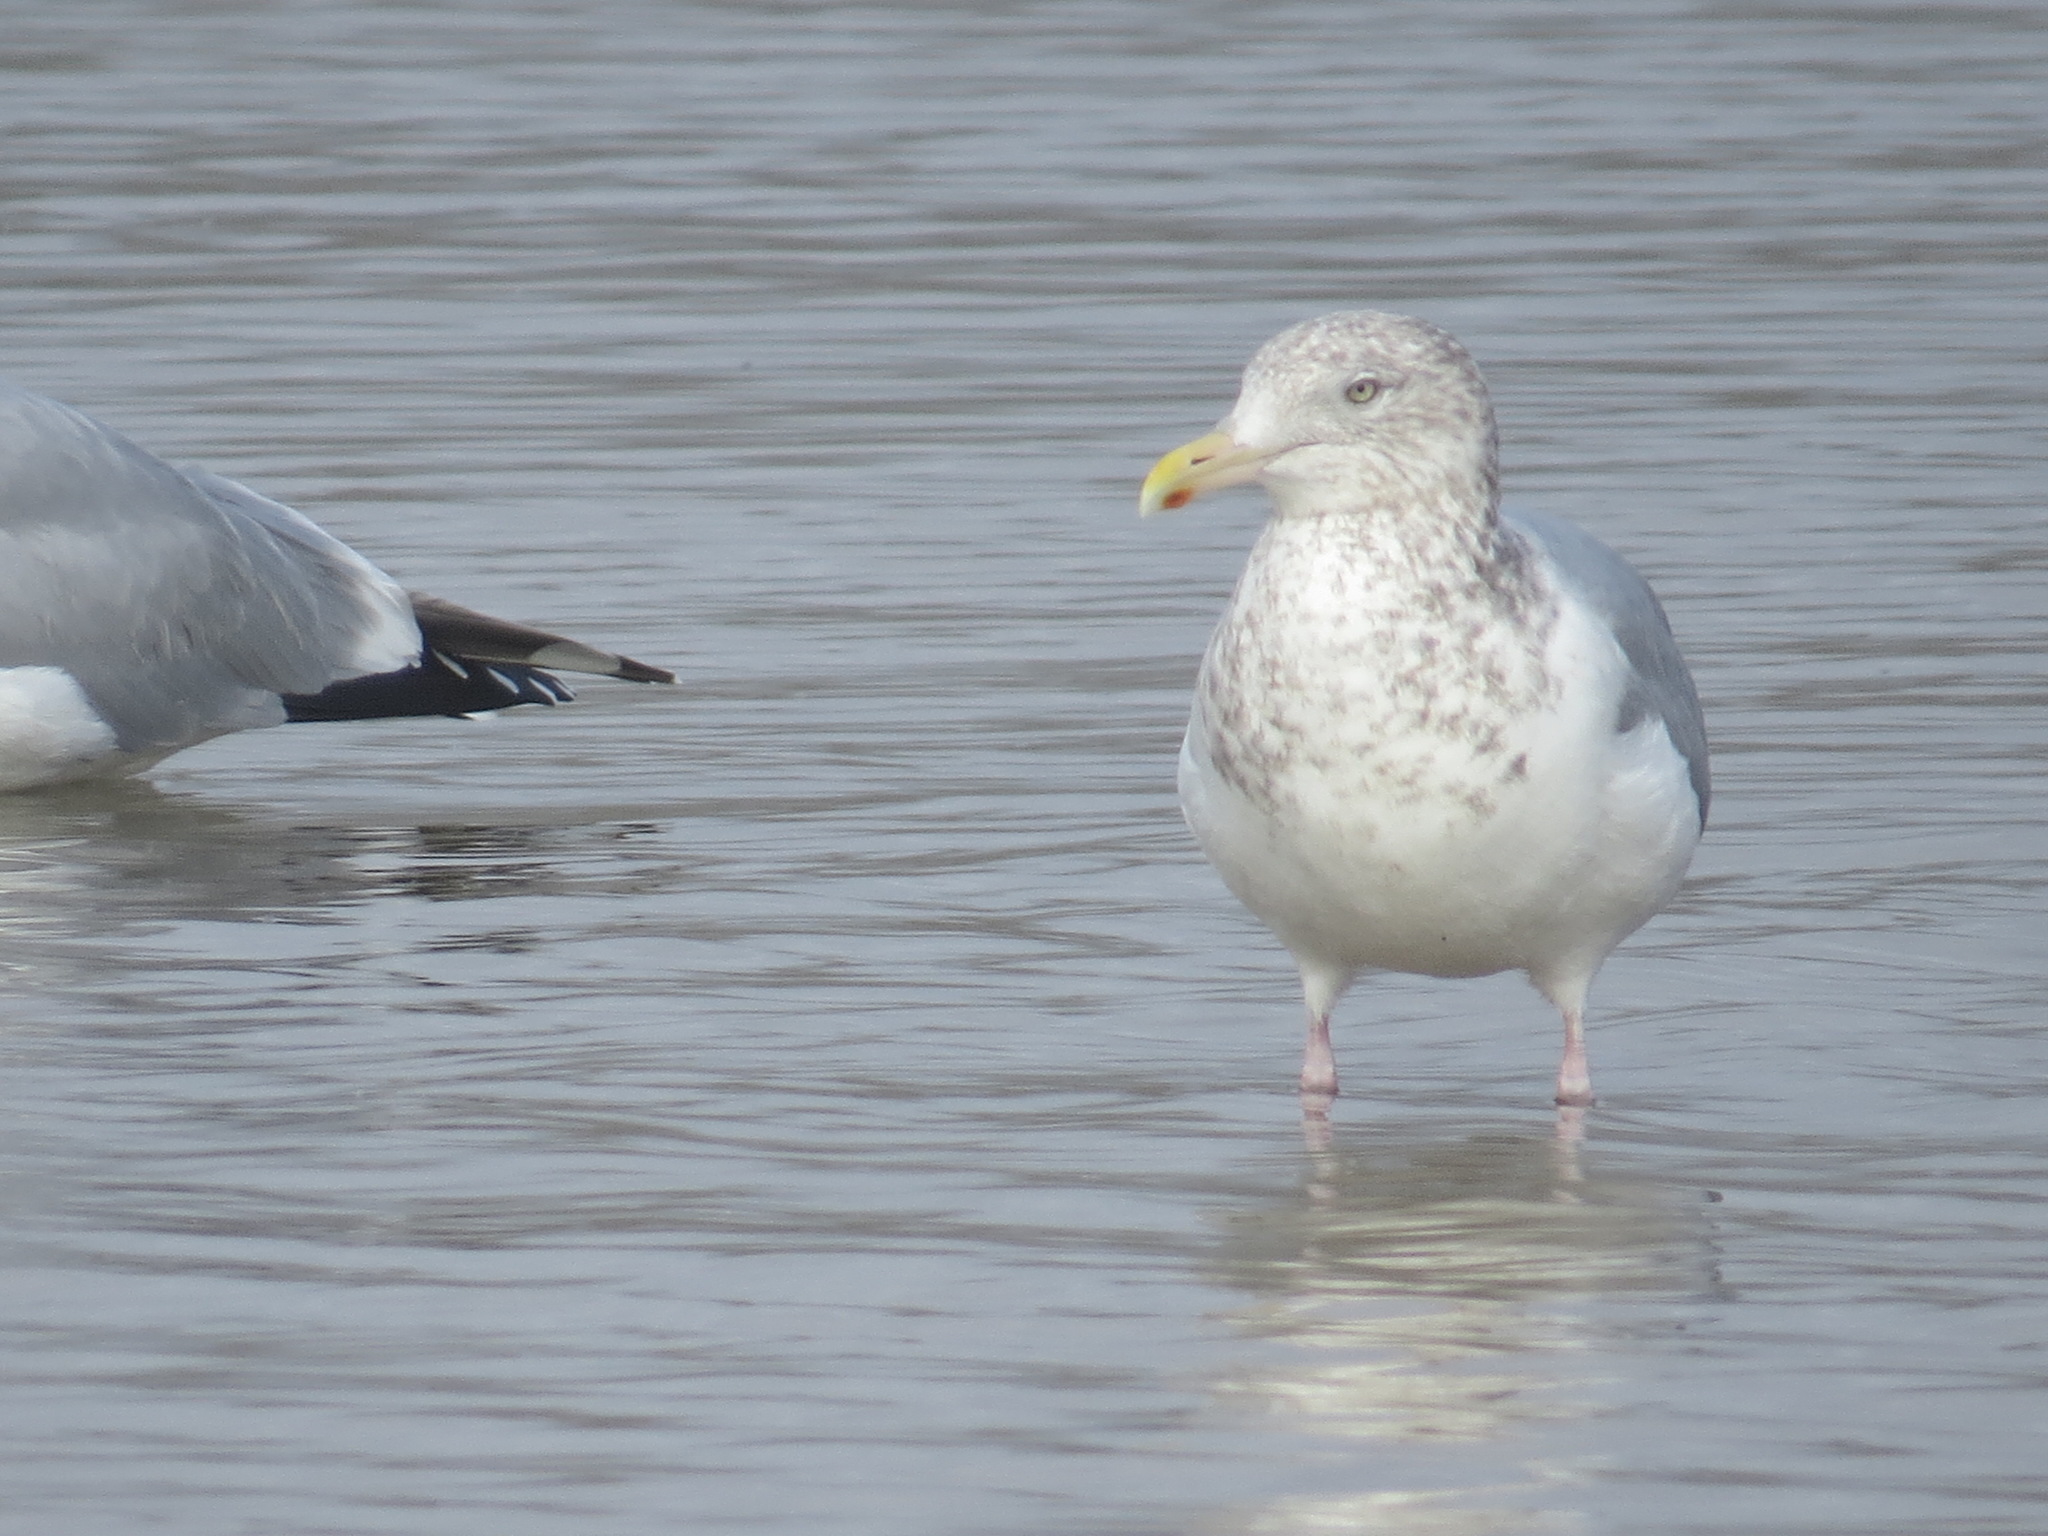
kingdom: Animalia
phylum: Chordata
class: Aves
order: Charadriiformes
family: Laridae
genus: Larus
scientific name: Larus argentatus
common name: Herring gull
